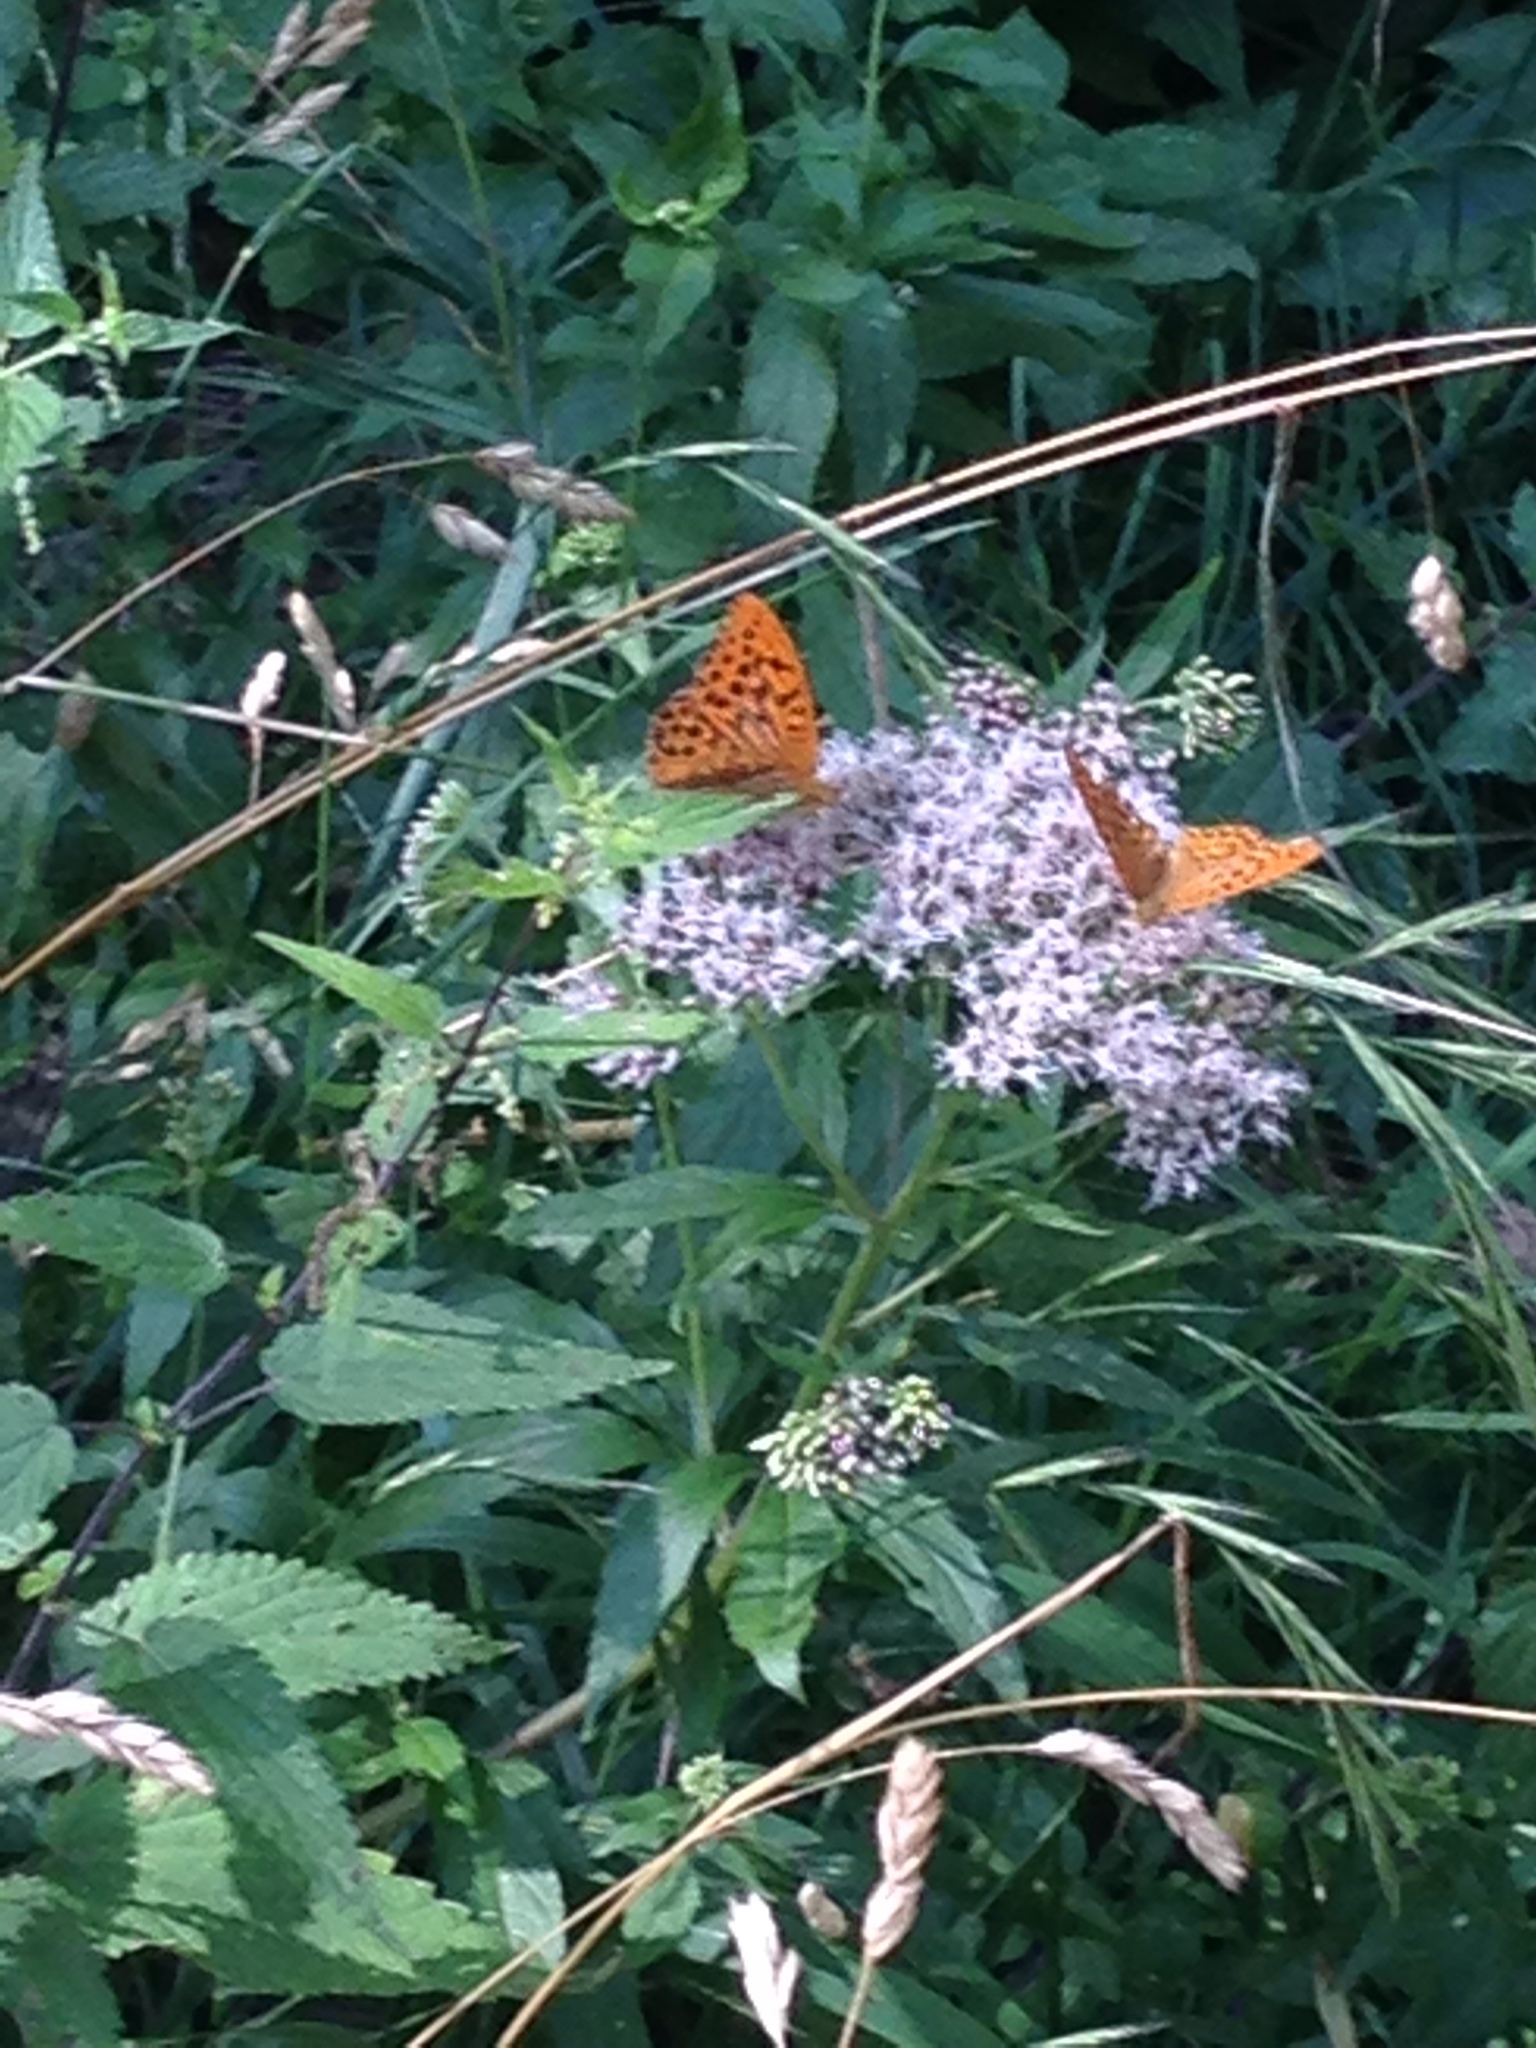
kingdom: Animalia
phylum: Arthropoda
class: Insecta
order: Lepidoptera
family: Nymphalidae
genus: Argynnis
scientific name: Argynnis paphia
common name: Silver-washed fritillary
